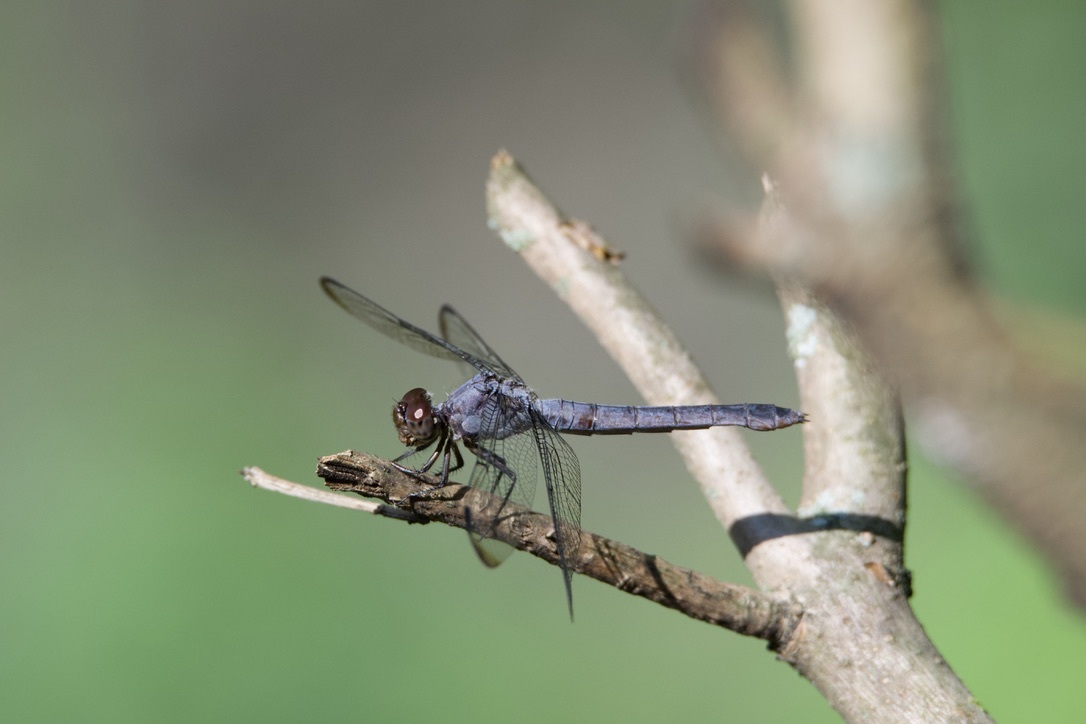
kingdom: Animalia
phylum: Arthropoda
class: Insecta
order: Odonata
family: Libellulidae
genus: Libellula
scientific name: Libellula incesta
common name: Slaty skimmer
